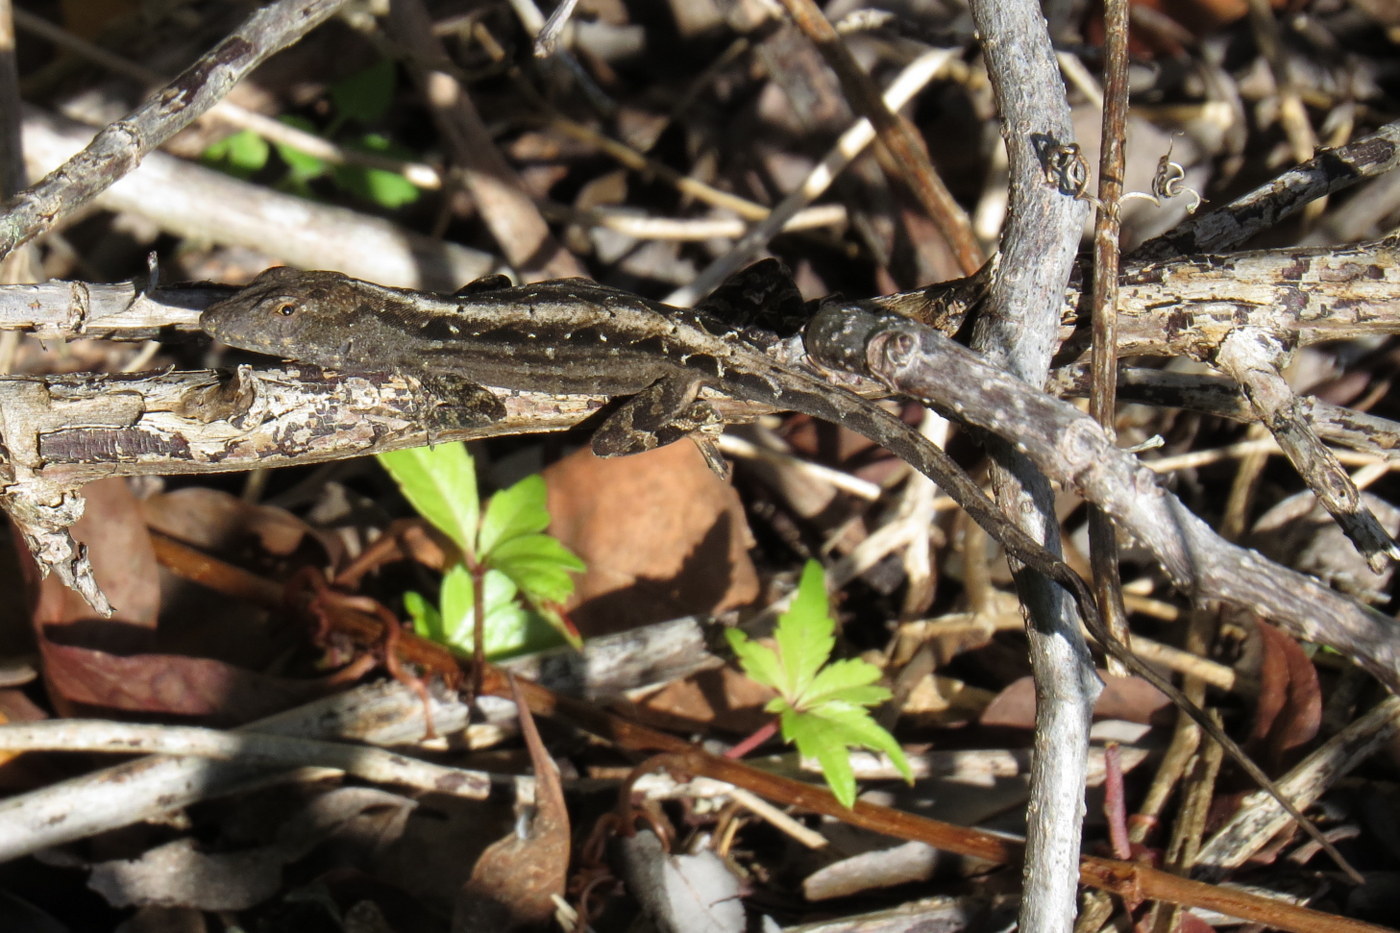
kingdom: Animalia
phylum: Chordata
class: Squamata
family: Dactyloidae
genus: Anolis
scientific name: Anolis sagrei
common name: Brown anole
